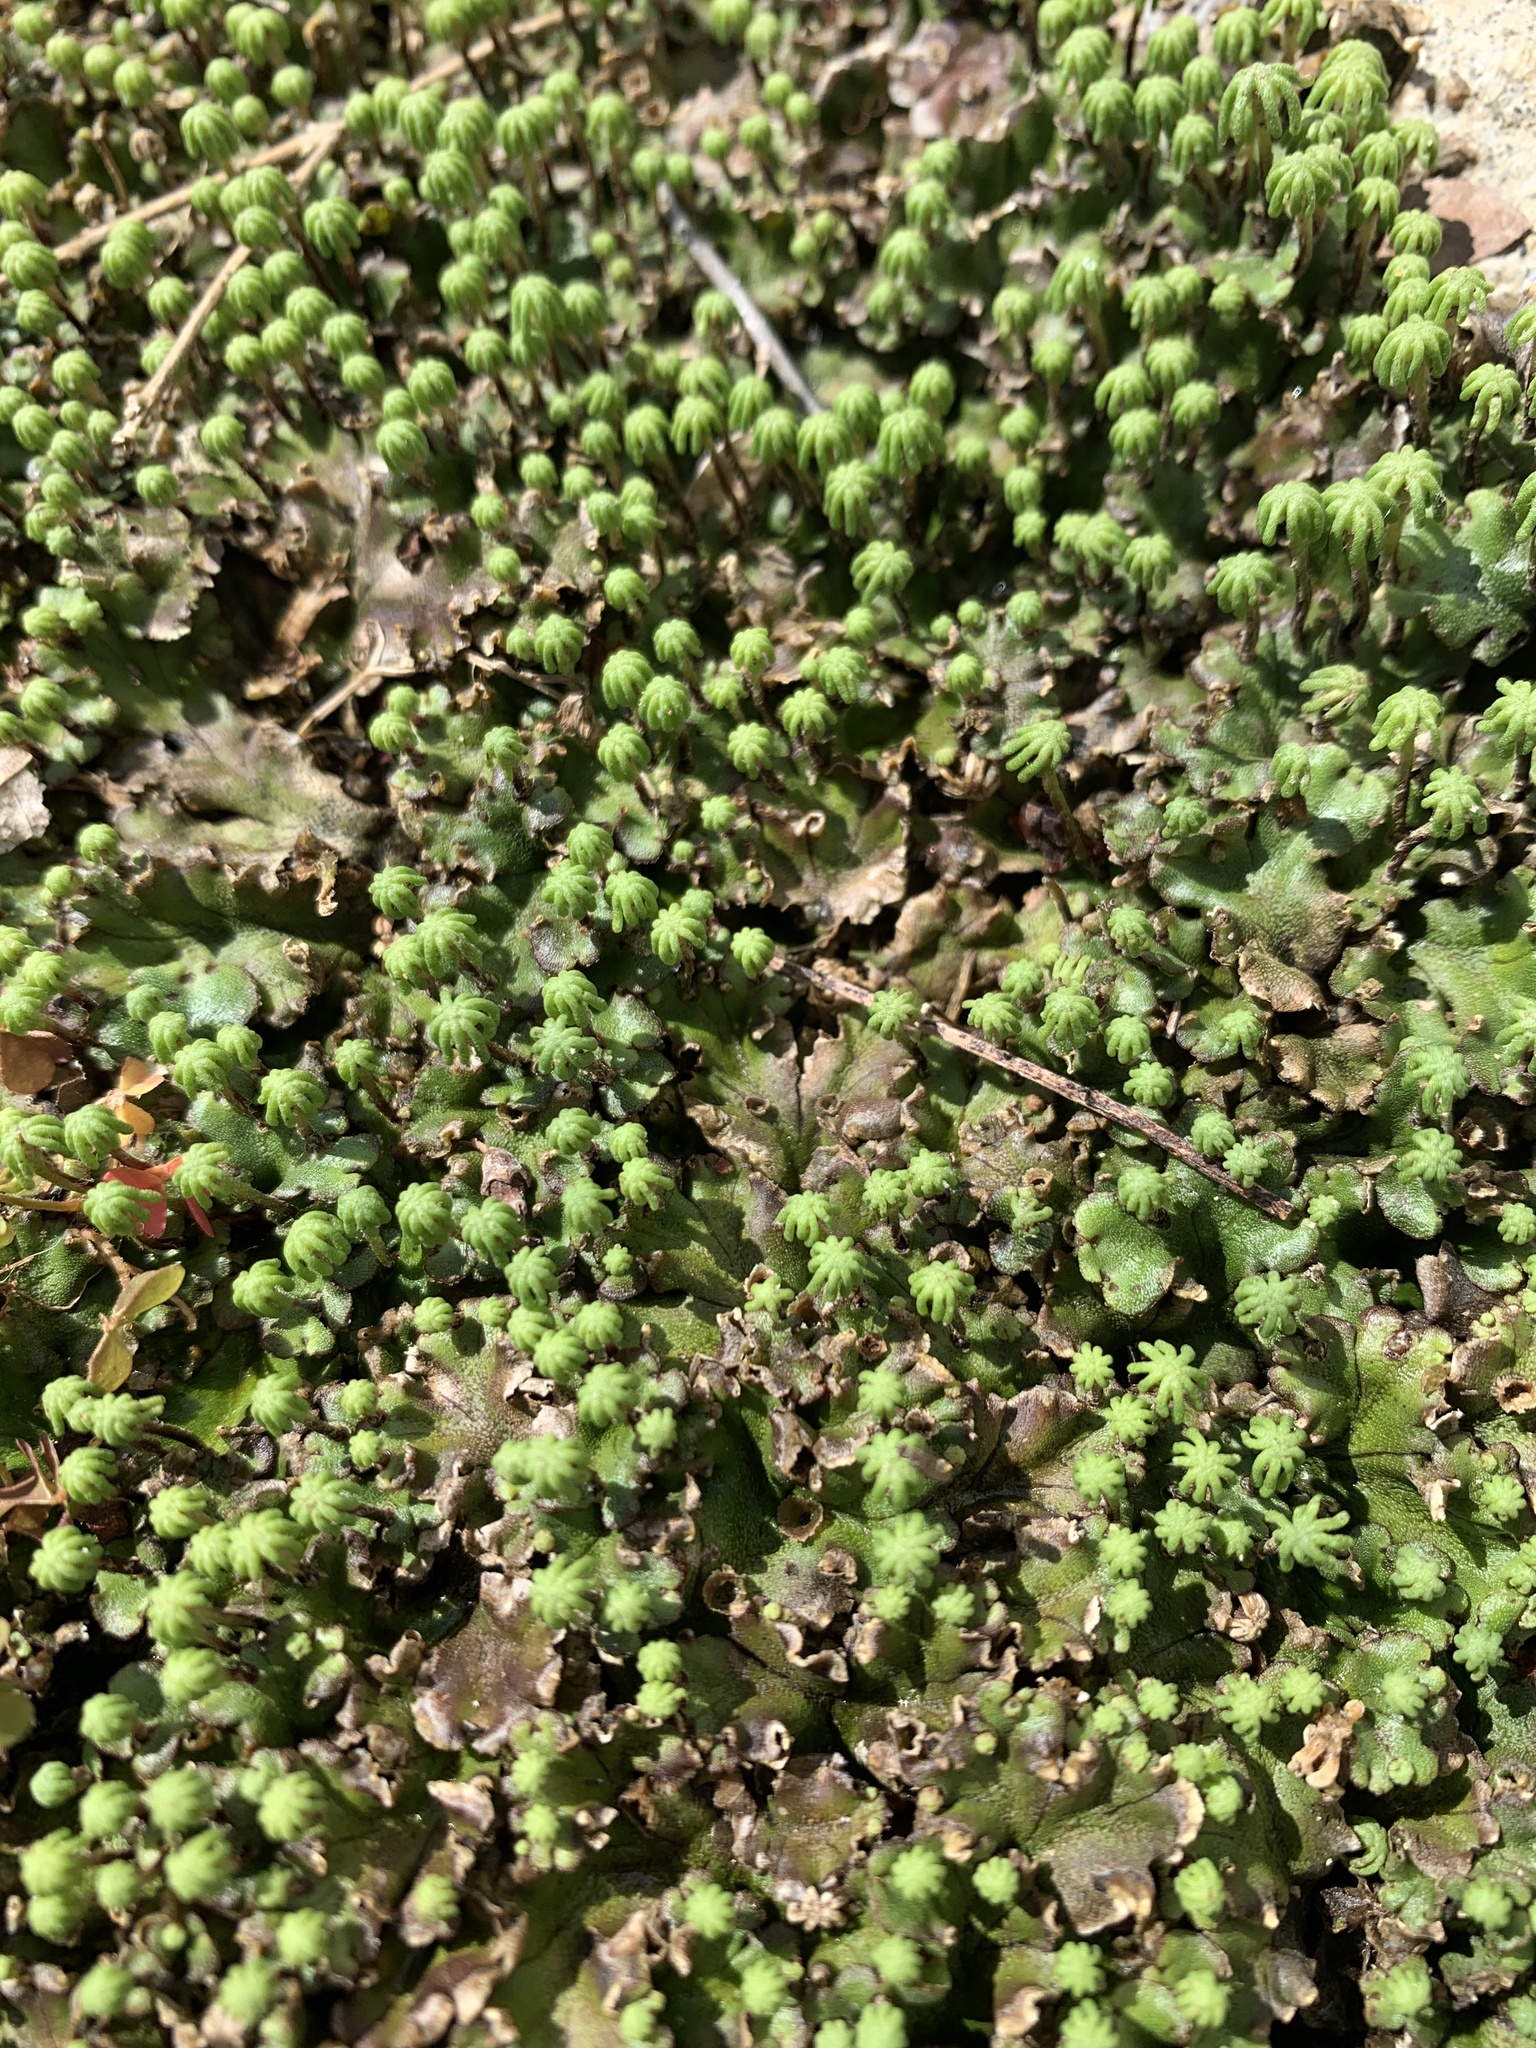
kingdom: Plantae
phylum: Marchantiophyta
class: Marchantiopsida
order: Marchantiales
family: Marchantiaceae
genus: Marchantia
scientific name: Marchantia polymorpha
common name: Common liverwort
